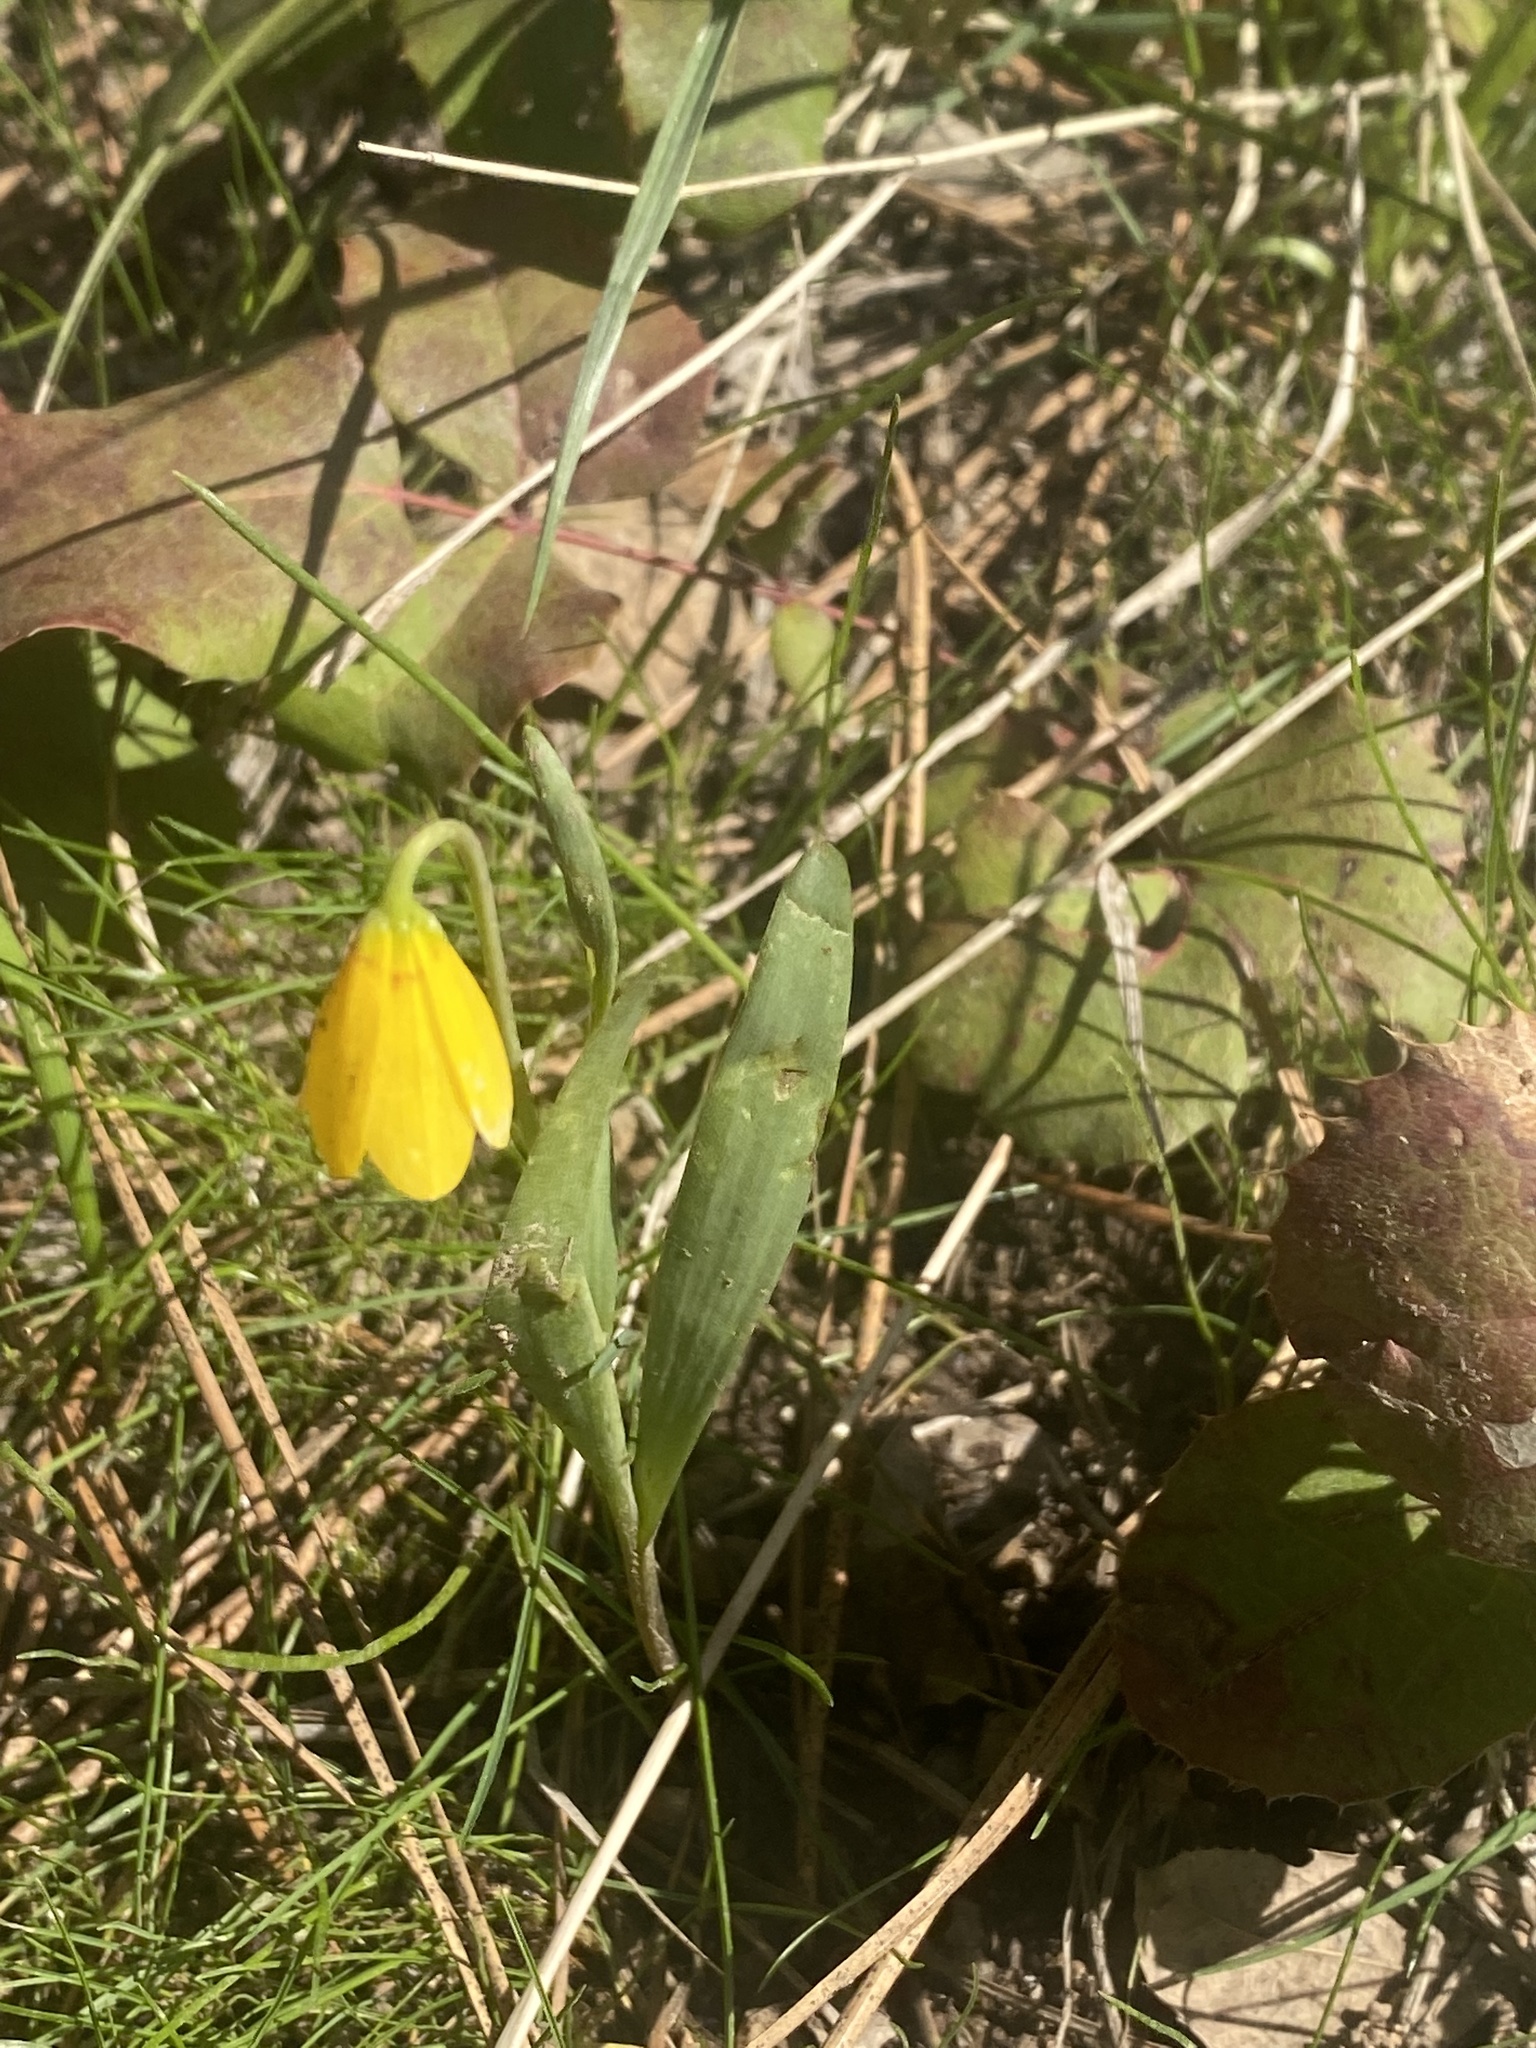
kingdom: Plantae
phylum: Tracheophyta
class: Liliopsida
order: Liliales
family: Liliaceae
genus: Fritillaria
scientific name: Fritillaria pudica
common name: Yellow fritillary
